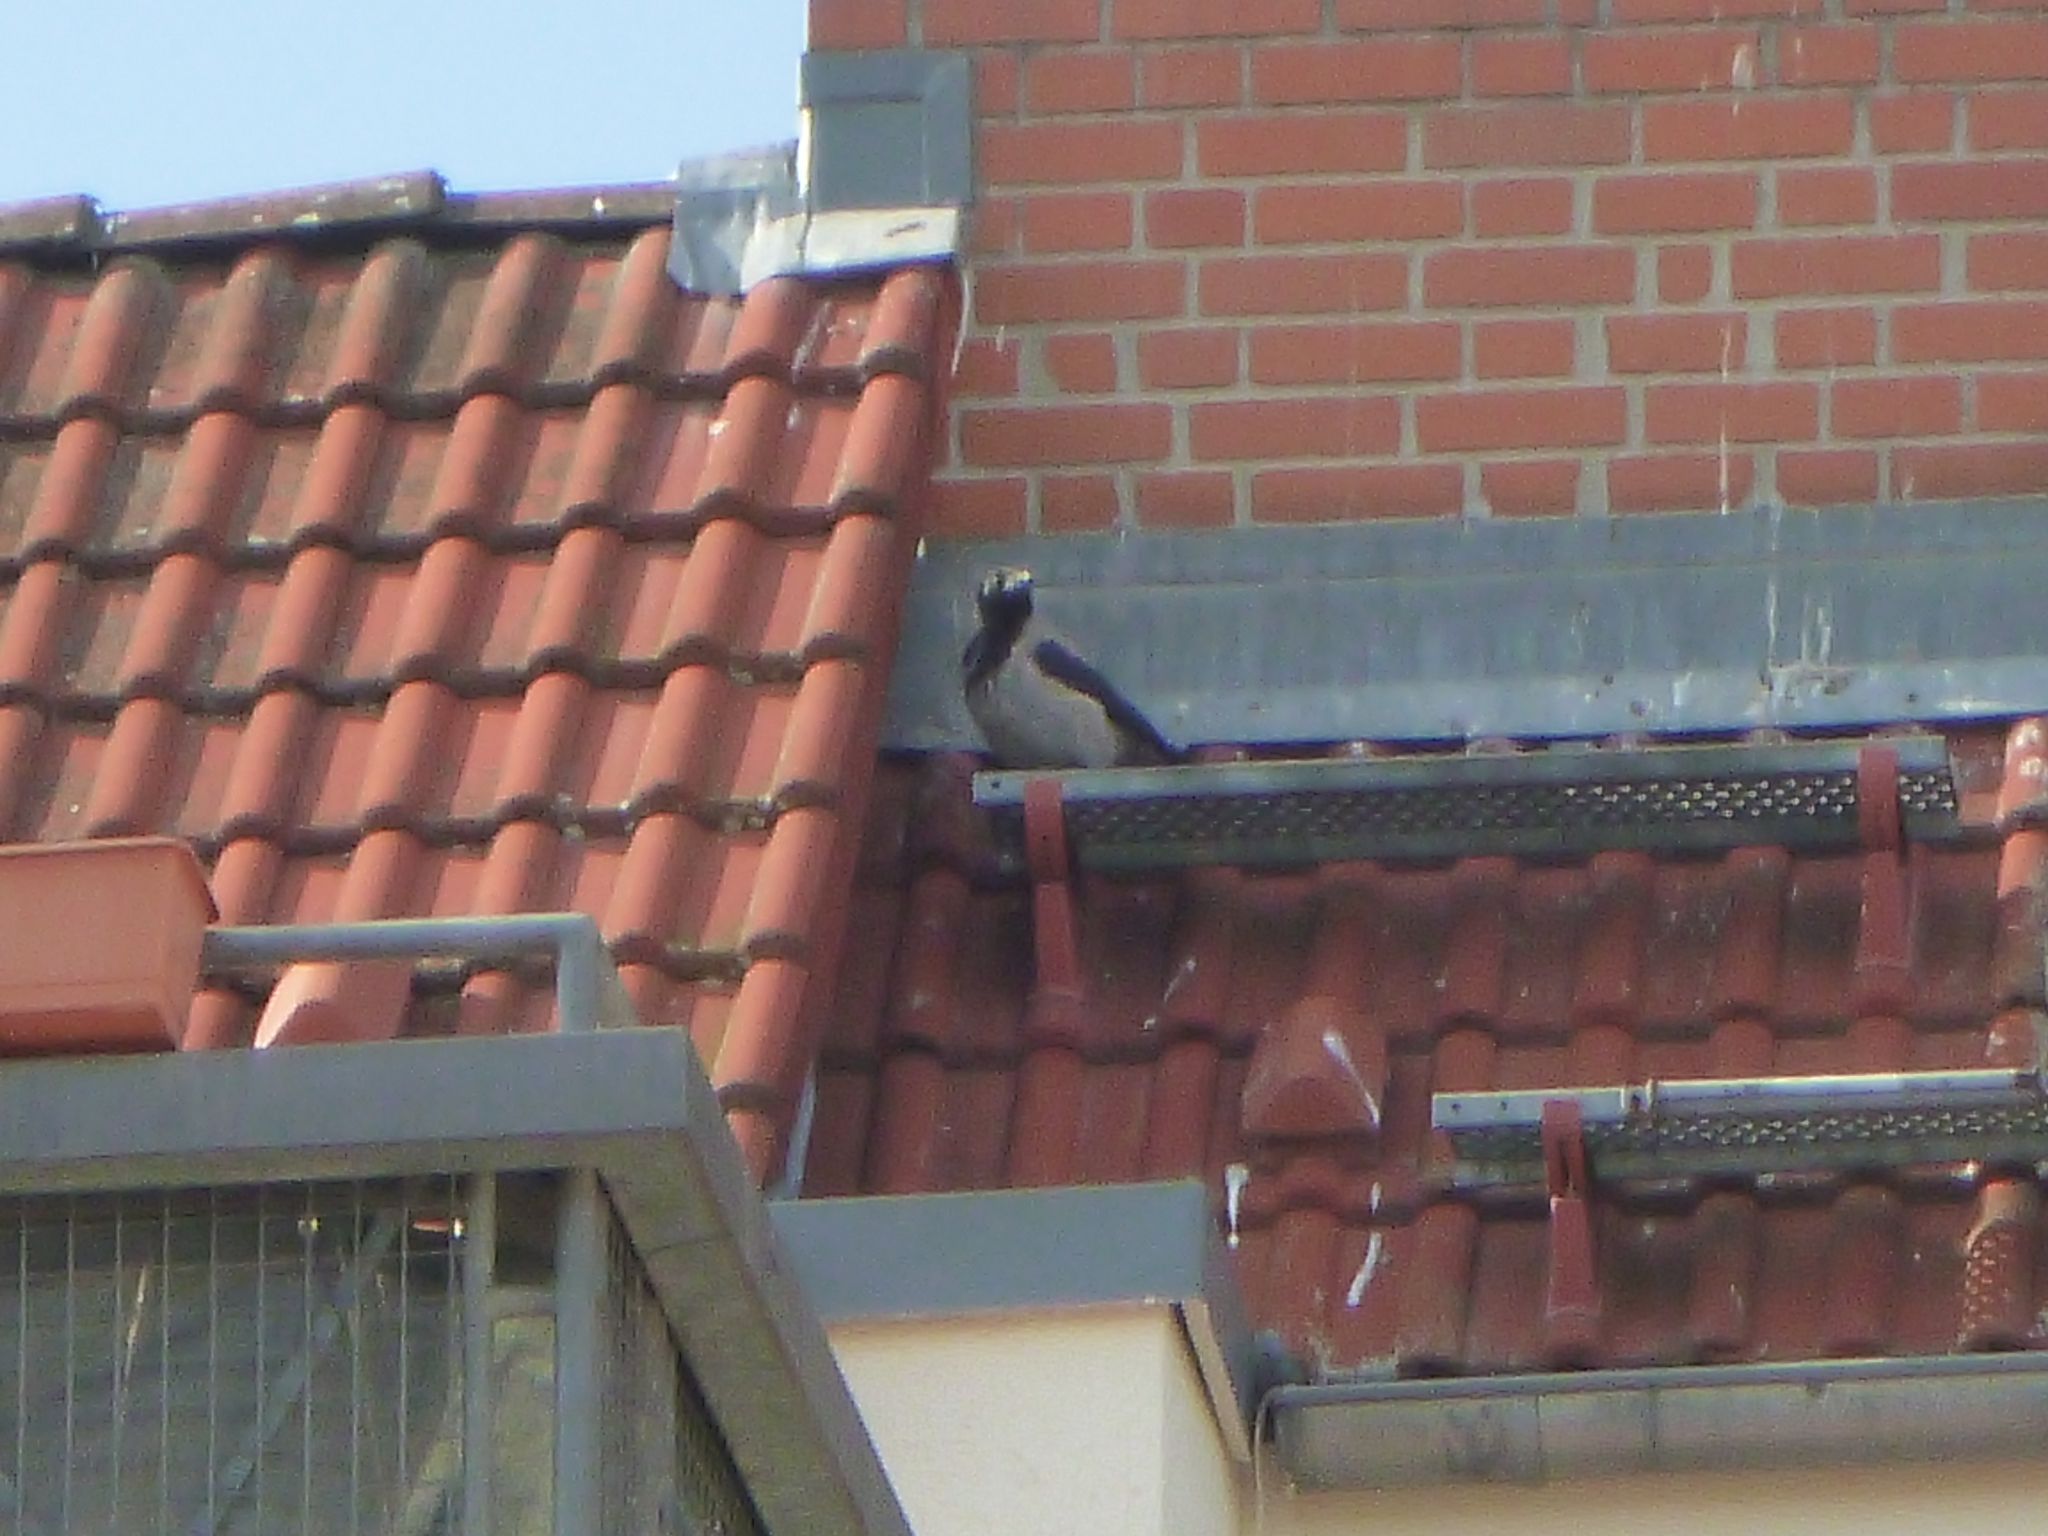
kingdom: Animalia
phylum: Chordata
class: Aves
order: Passeriformes
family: Corvidae
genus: Corvus
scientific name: Corvus cornix
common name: Hooded crow
